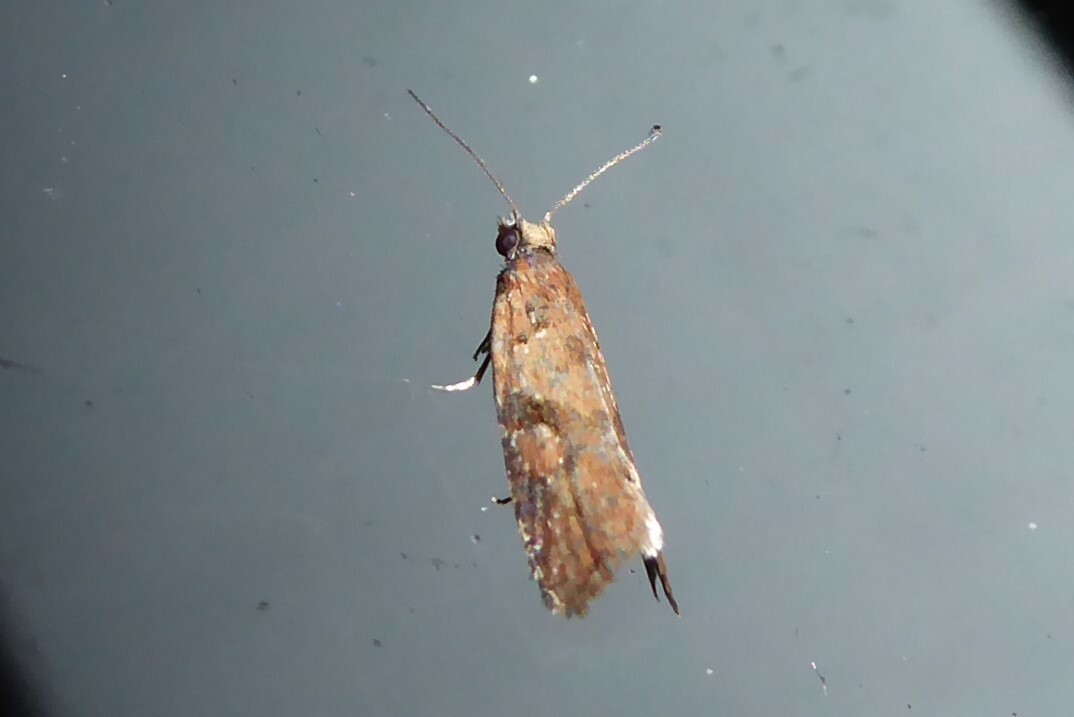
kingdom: Animalia
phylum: Arthropoda
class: Insecta
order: Lepidoptera
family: Tortricidae
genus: Capua
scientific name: Capua semiferana
